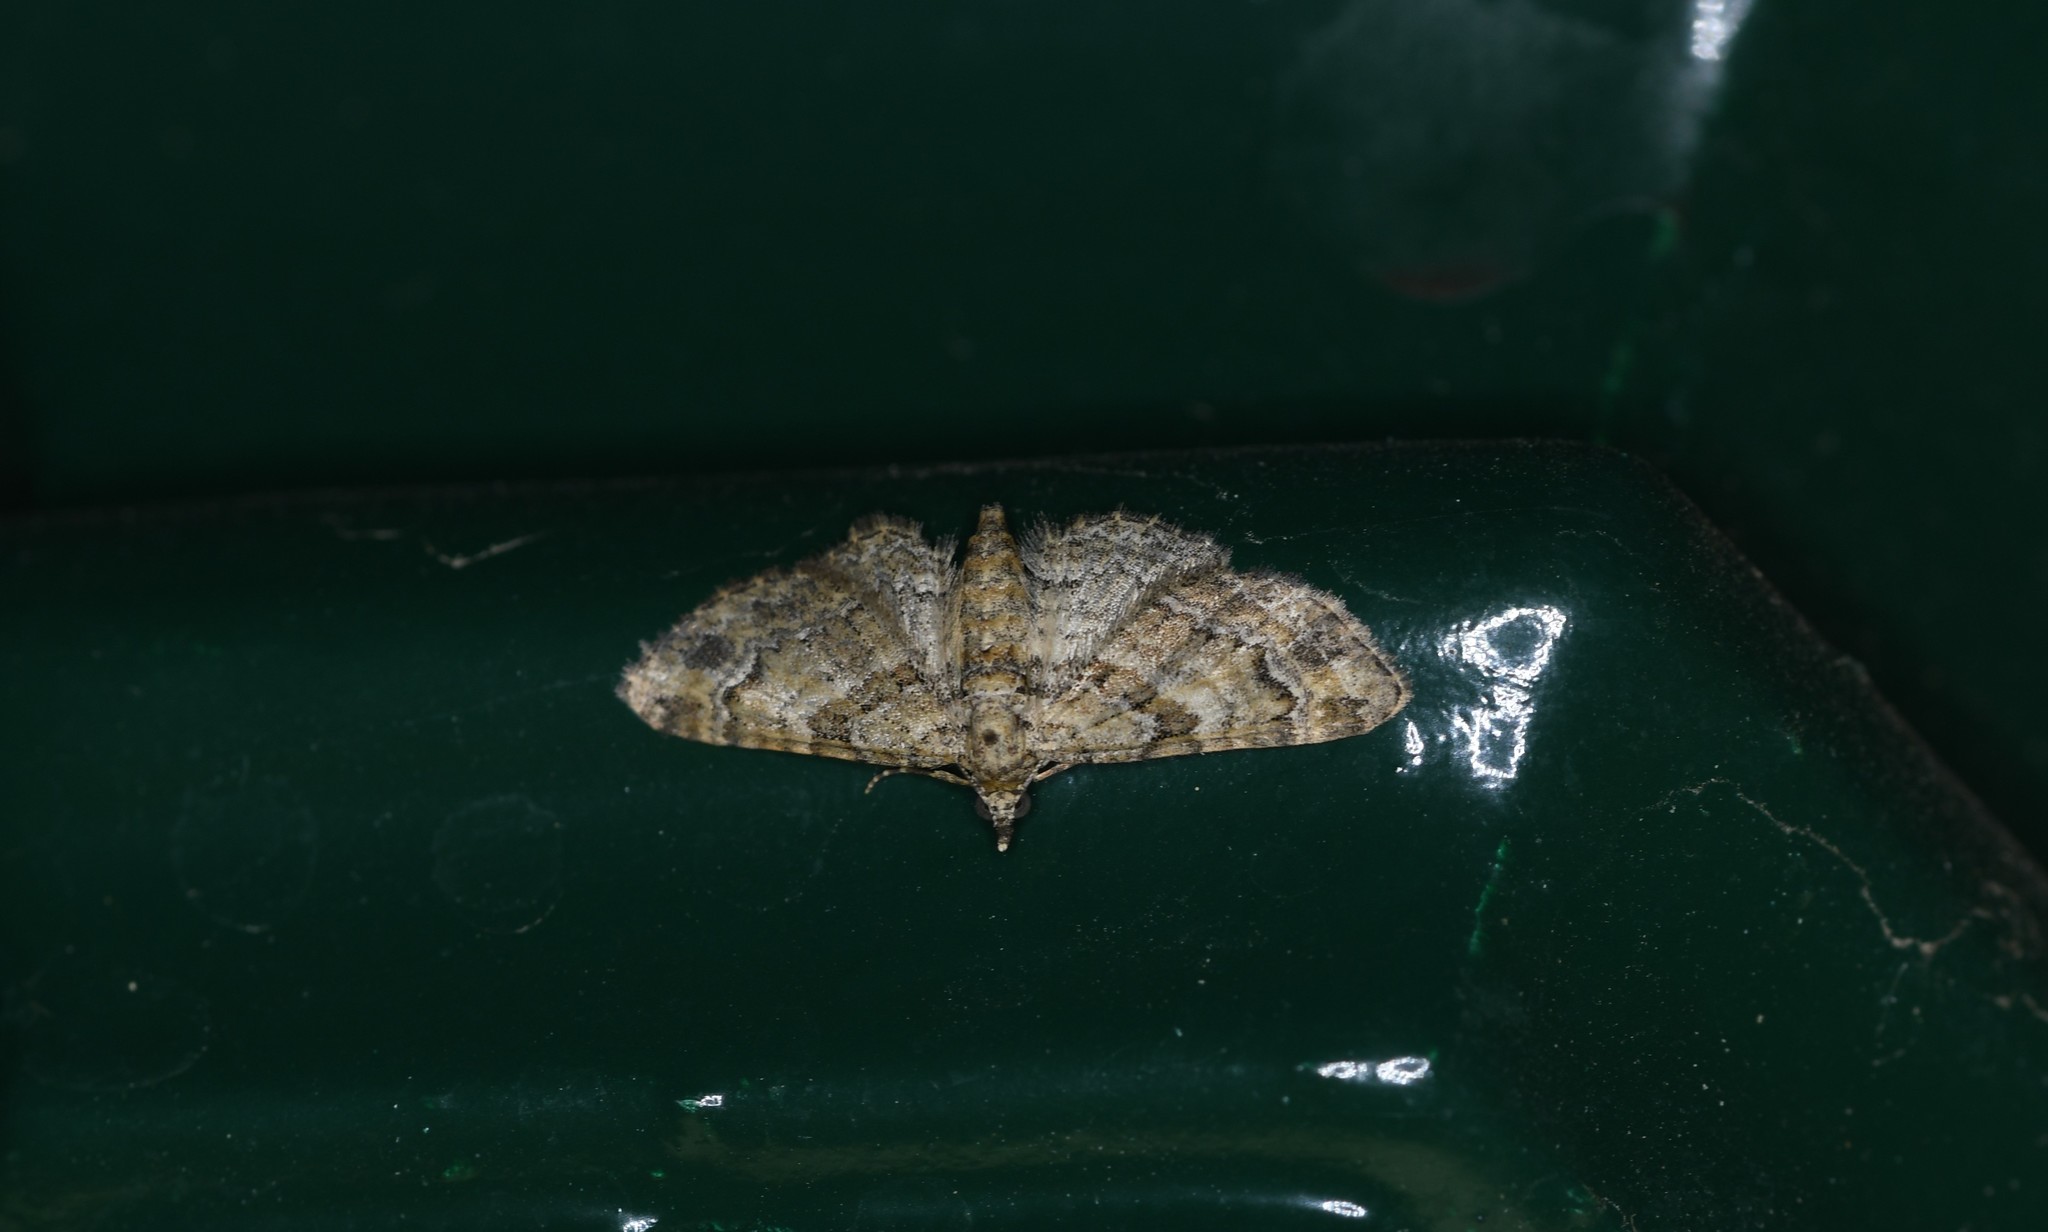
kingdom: Animalia
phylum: Arthropoda
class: Insecta
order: Lepidoptera
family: Geometridae
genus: Gymnoscelis
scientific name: Gymnoscelis rufifasciata
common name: Double-striped pug
